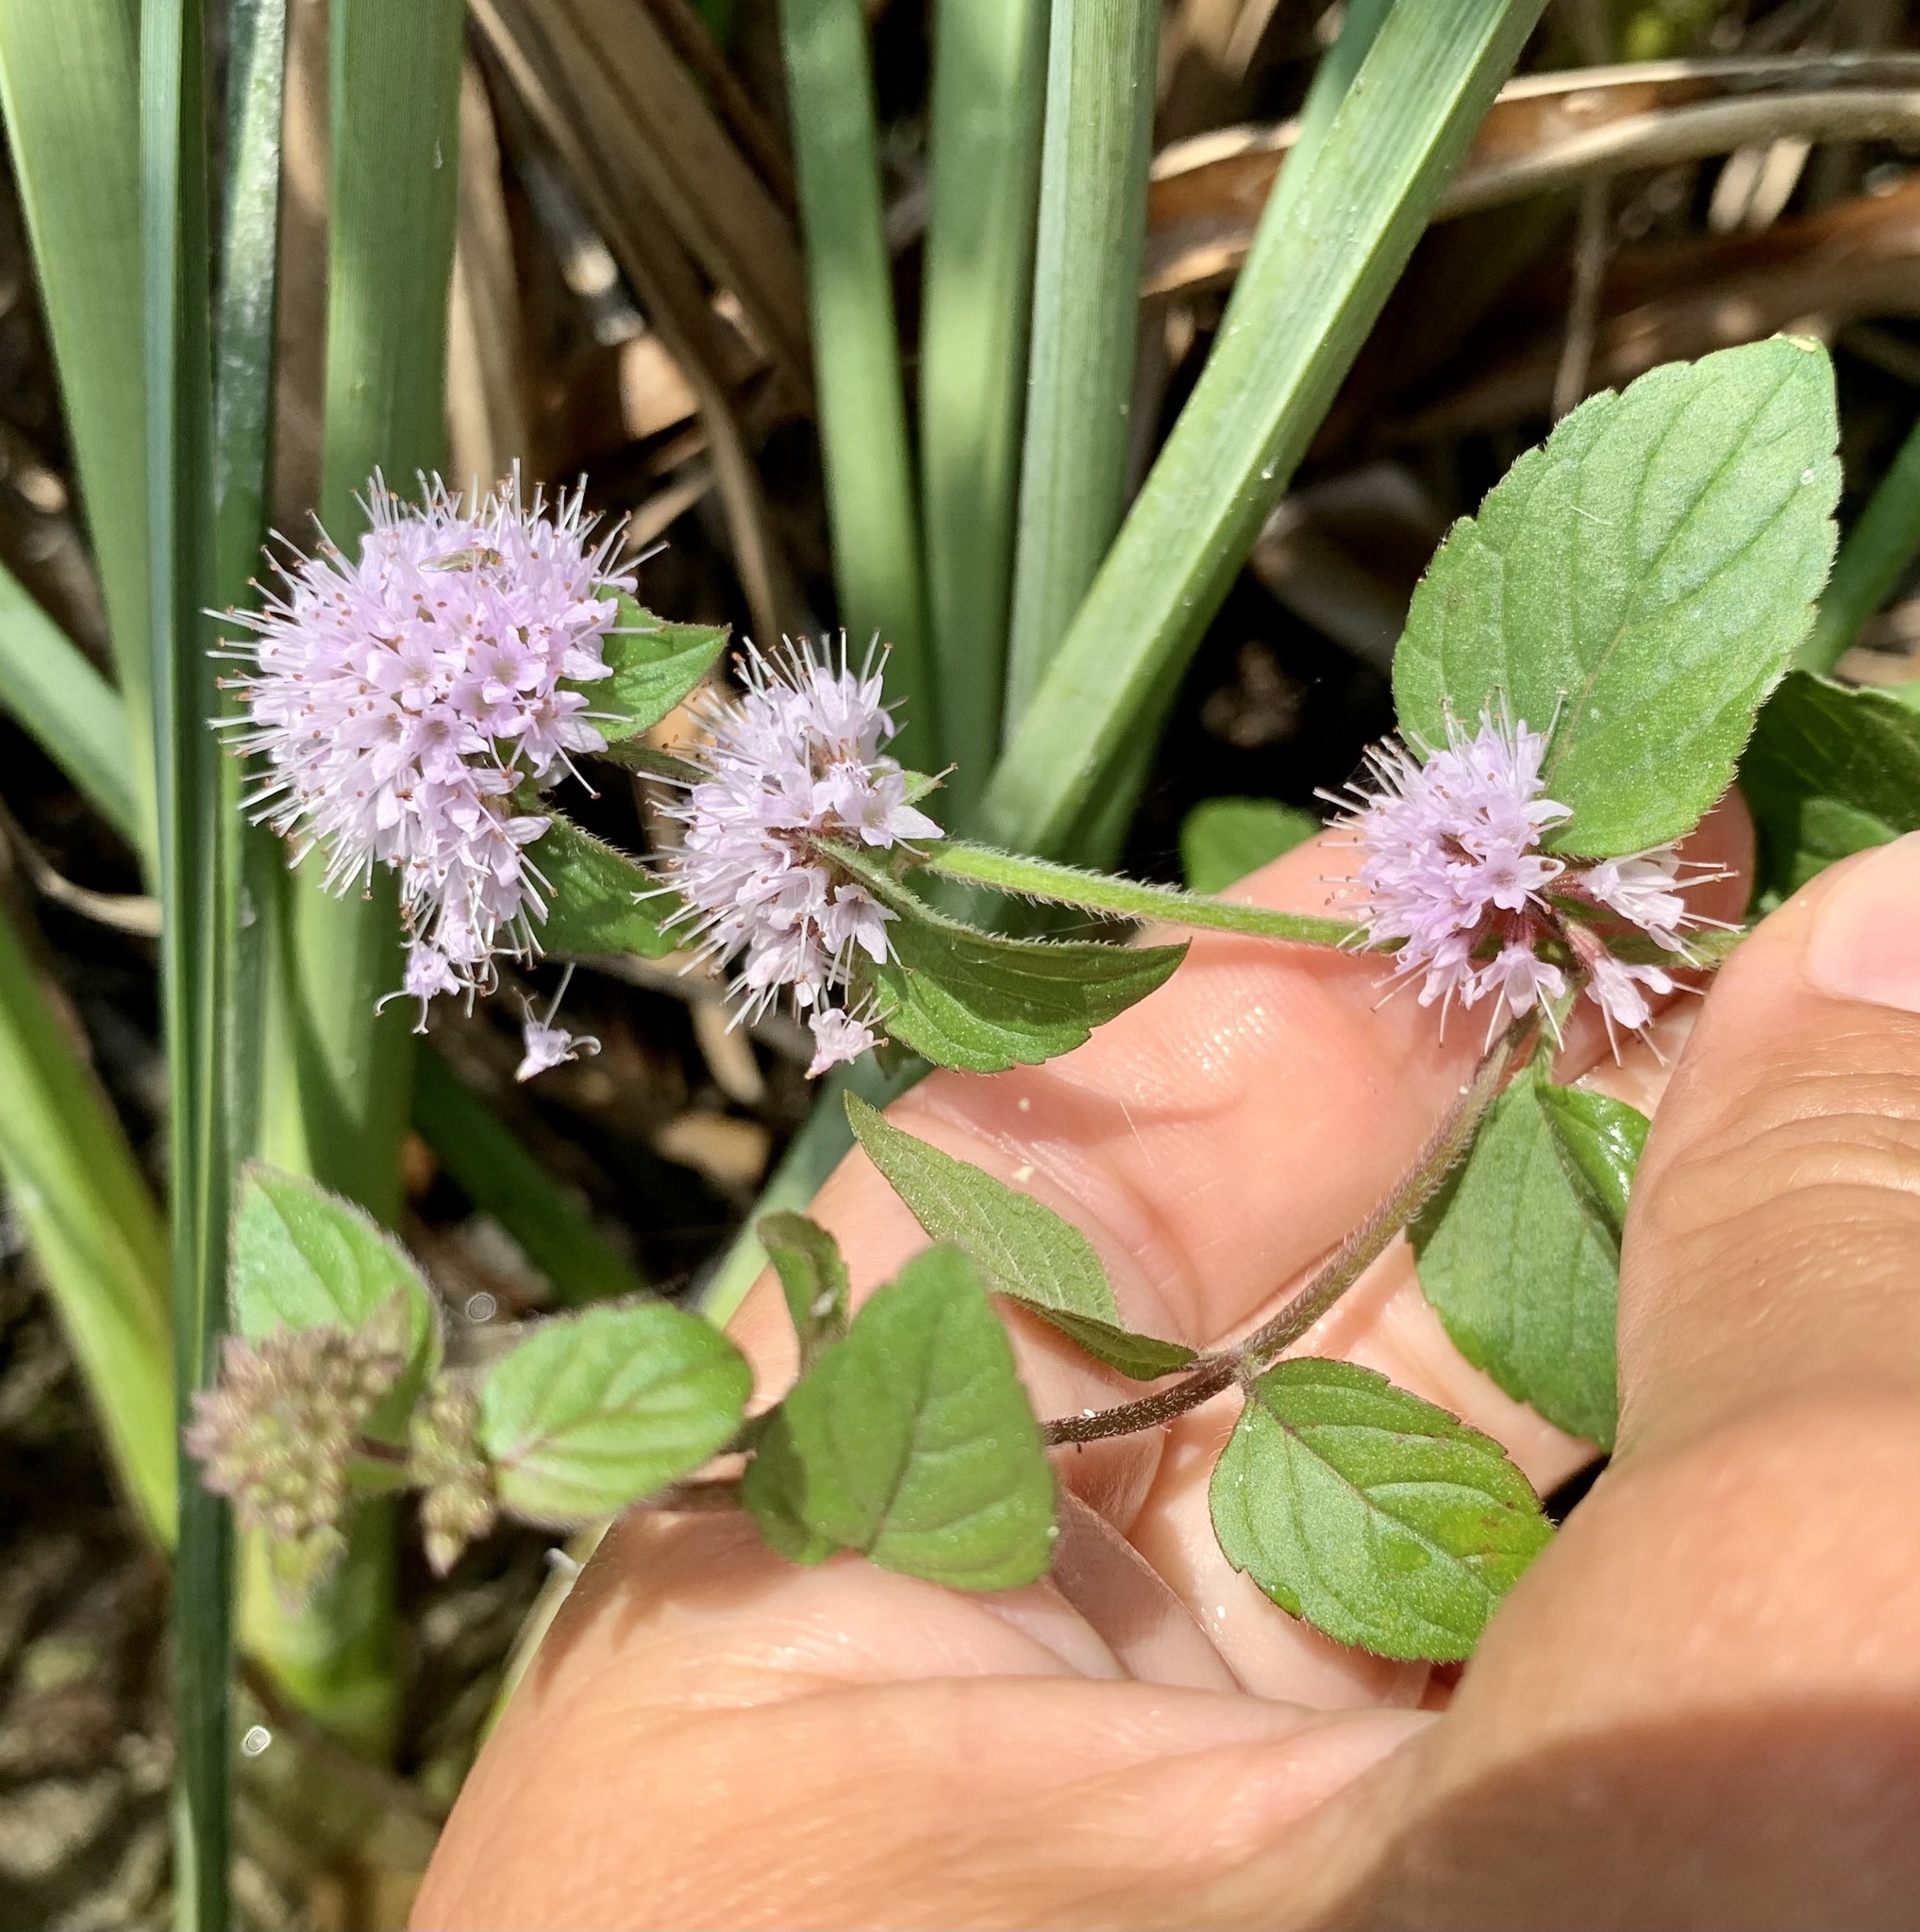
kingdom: Plantae
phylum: Tracheophyta
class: Magnoliopsida
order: Lamiales
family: Lamiaceae
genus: Mentha
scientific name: Mentha aquatica
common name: Water mint
